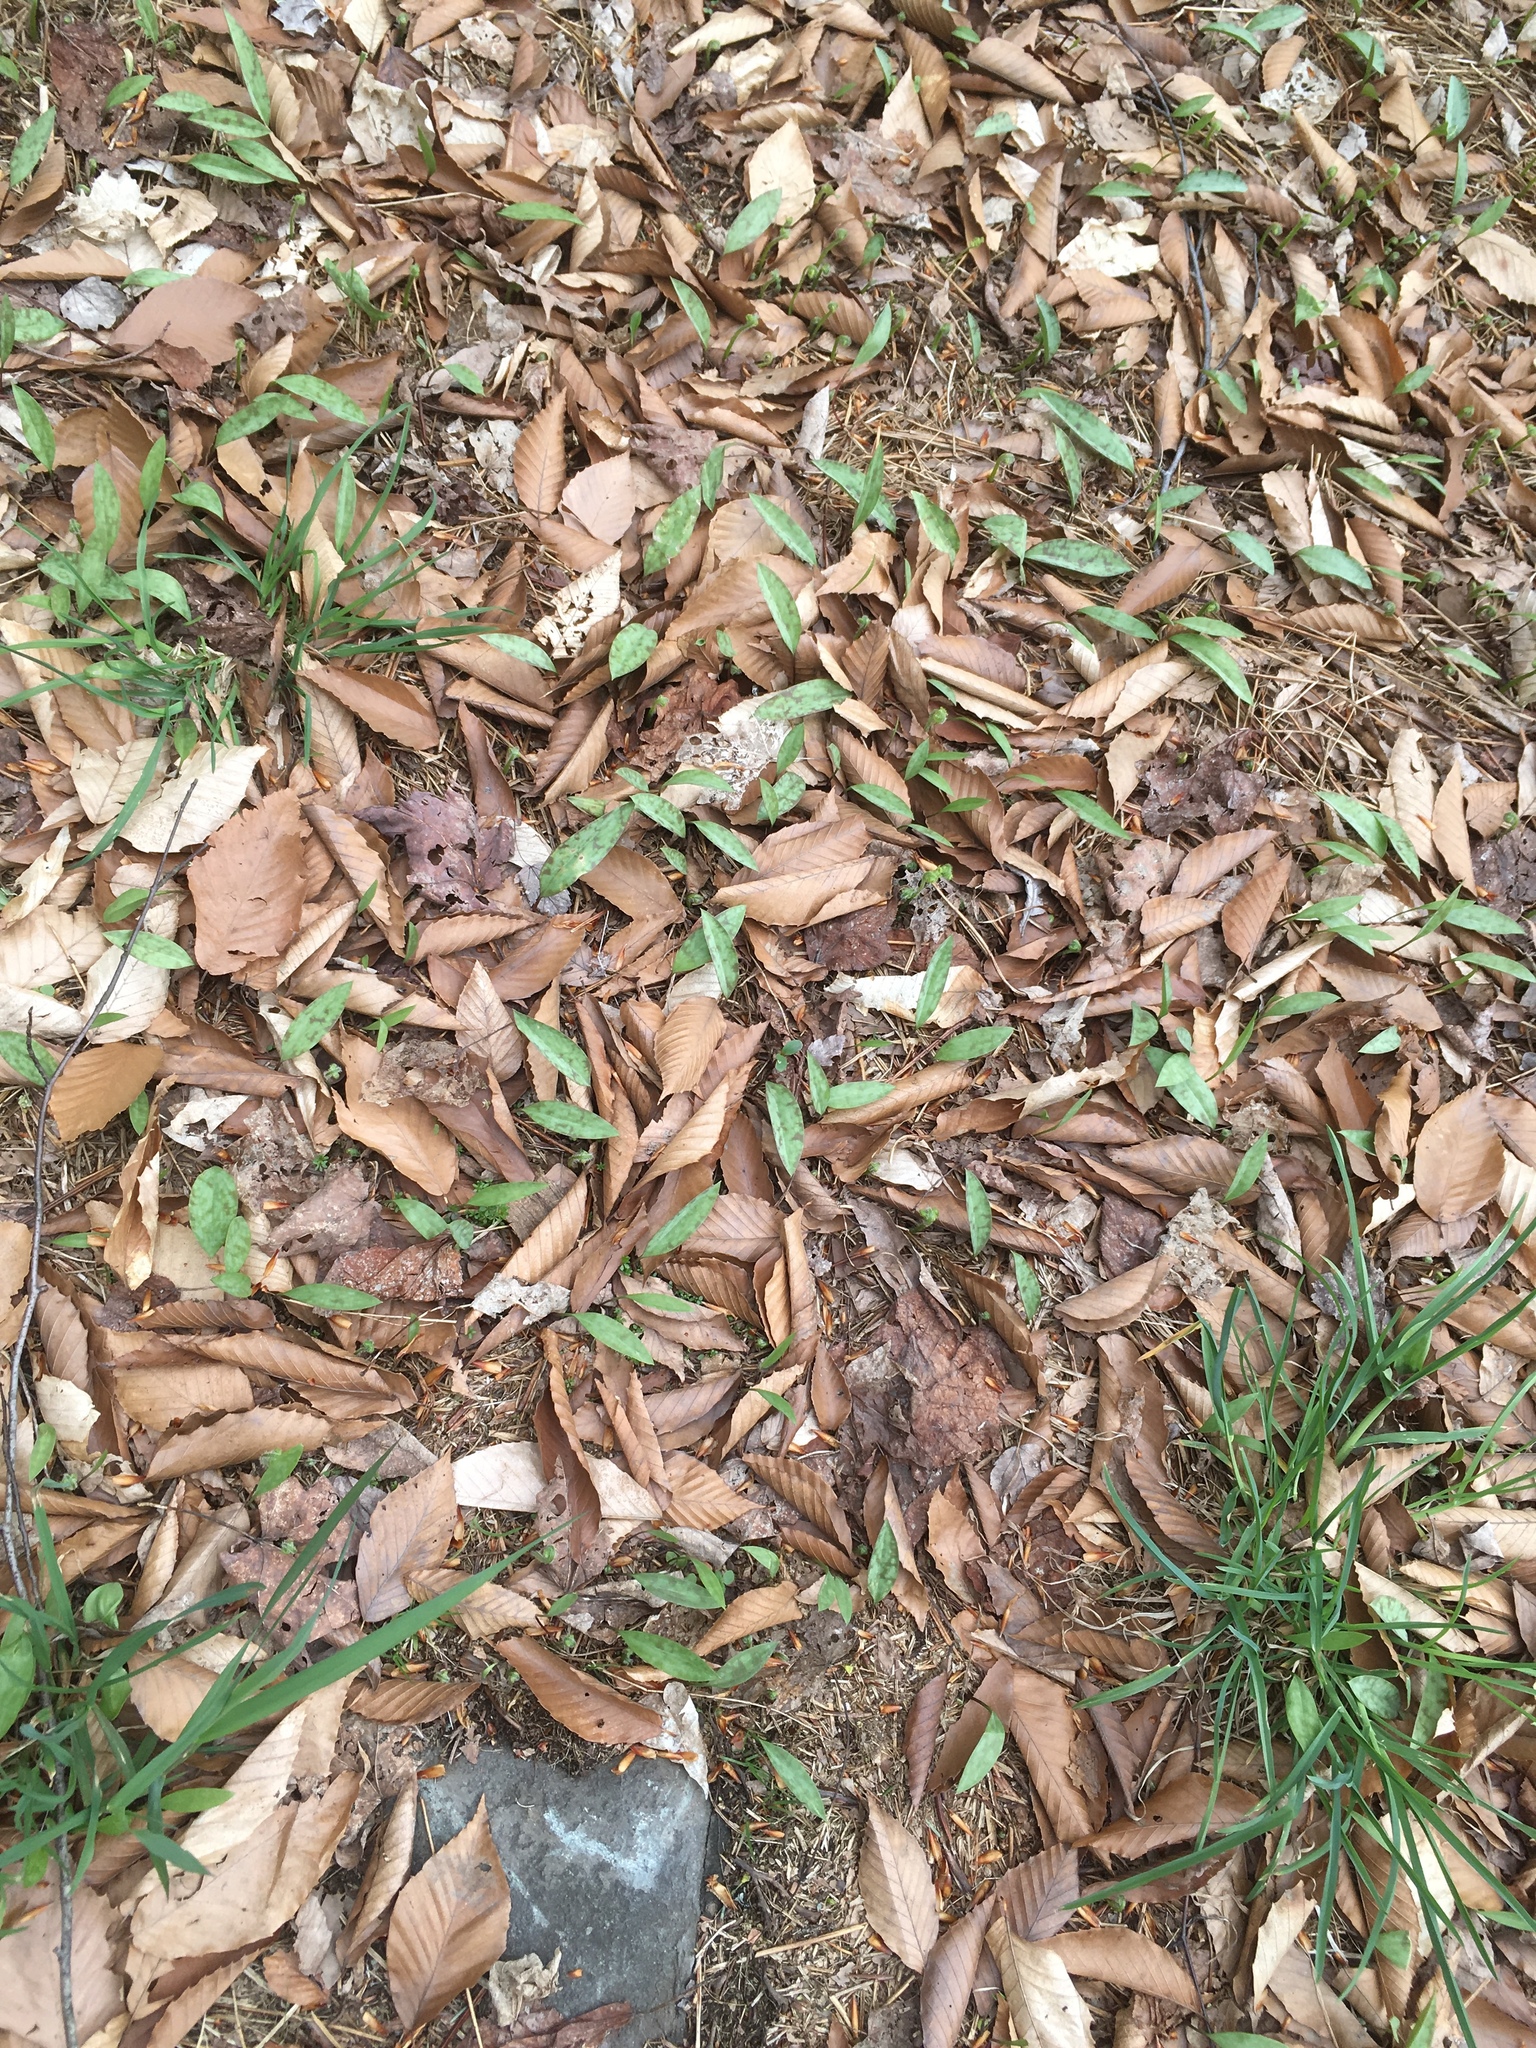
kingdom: Plantae
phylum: Tracheophyta
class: Liliopsida
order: Liliales
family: Liliaceae
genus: Erythronium
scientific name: Erythronium americanum
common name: Yellow adder's-tongue
